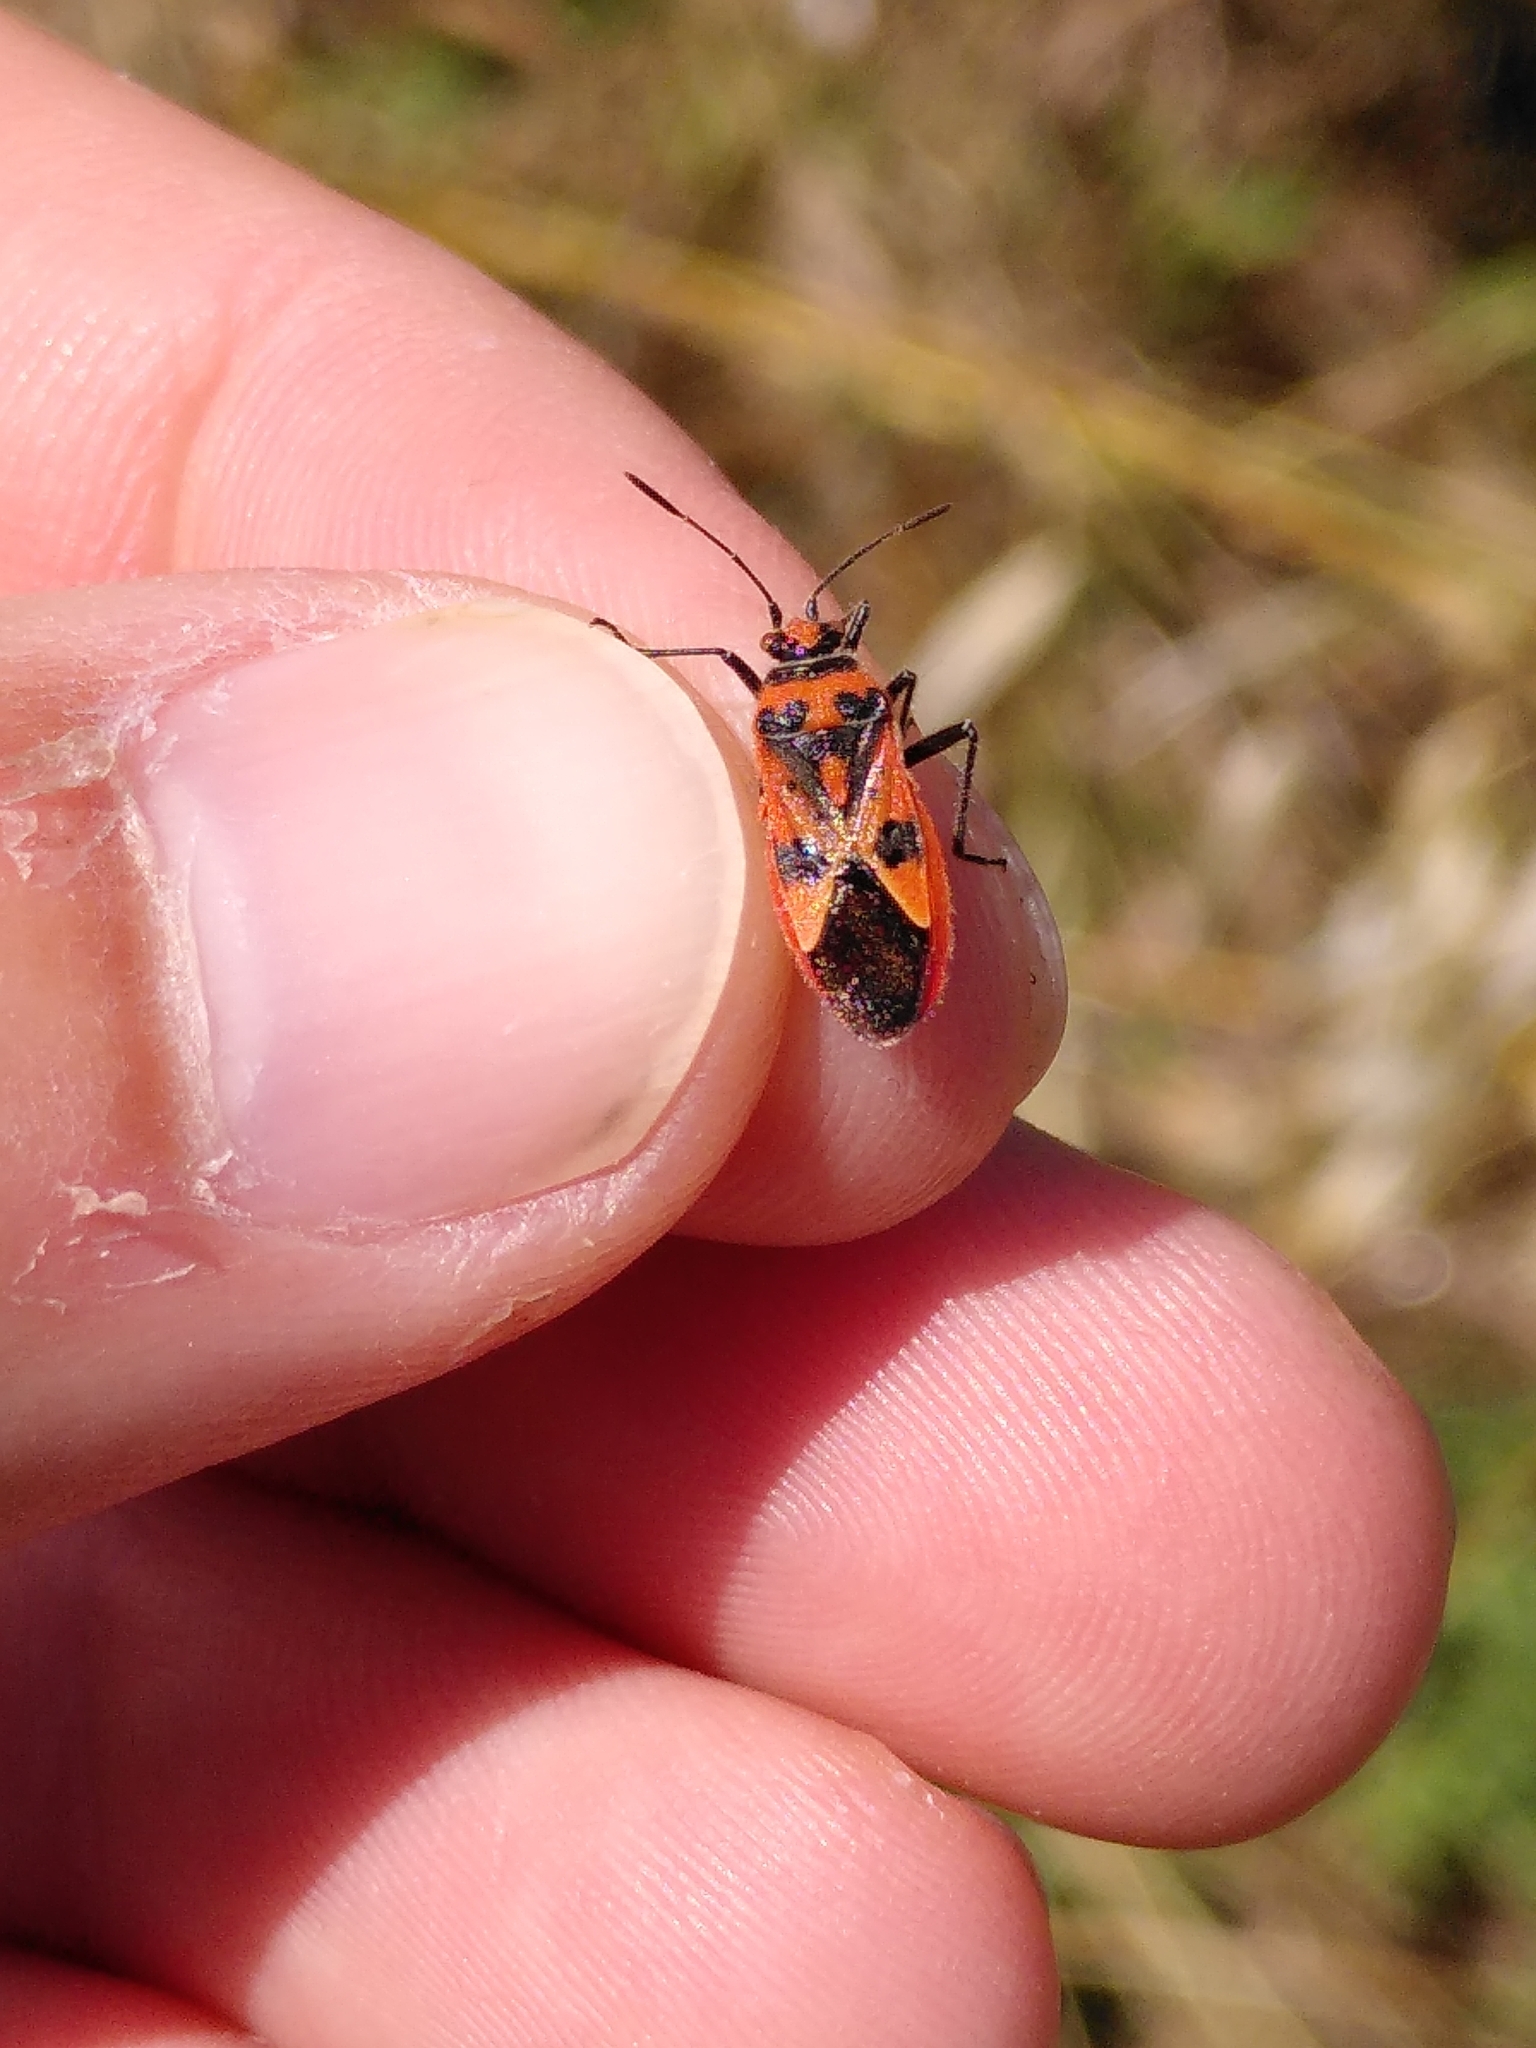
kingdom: Animalia
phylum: Arthropoda
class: Insecta
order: Hemiptera
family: Rhopalidae
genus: Corizus
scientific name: Corizus hyoscyami
